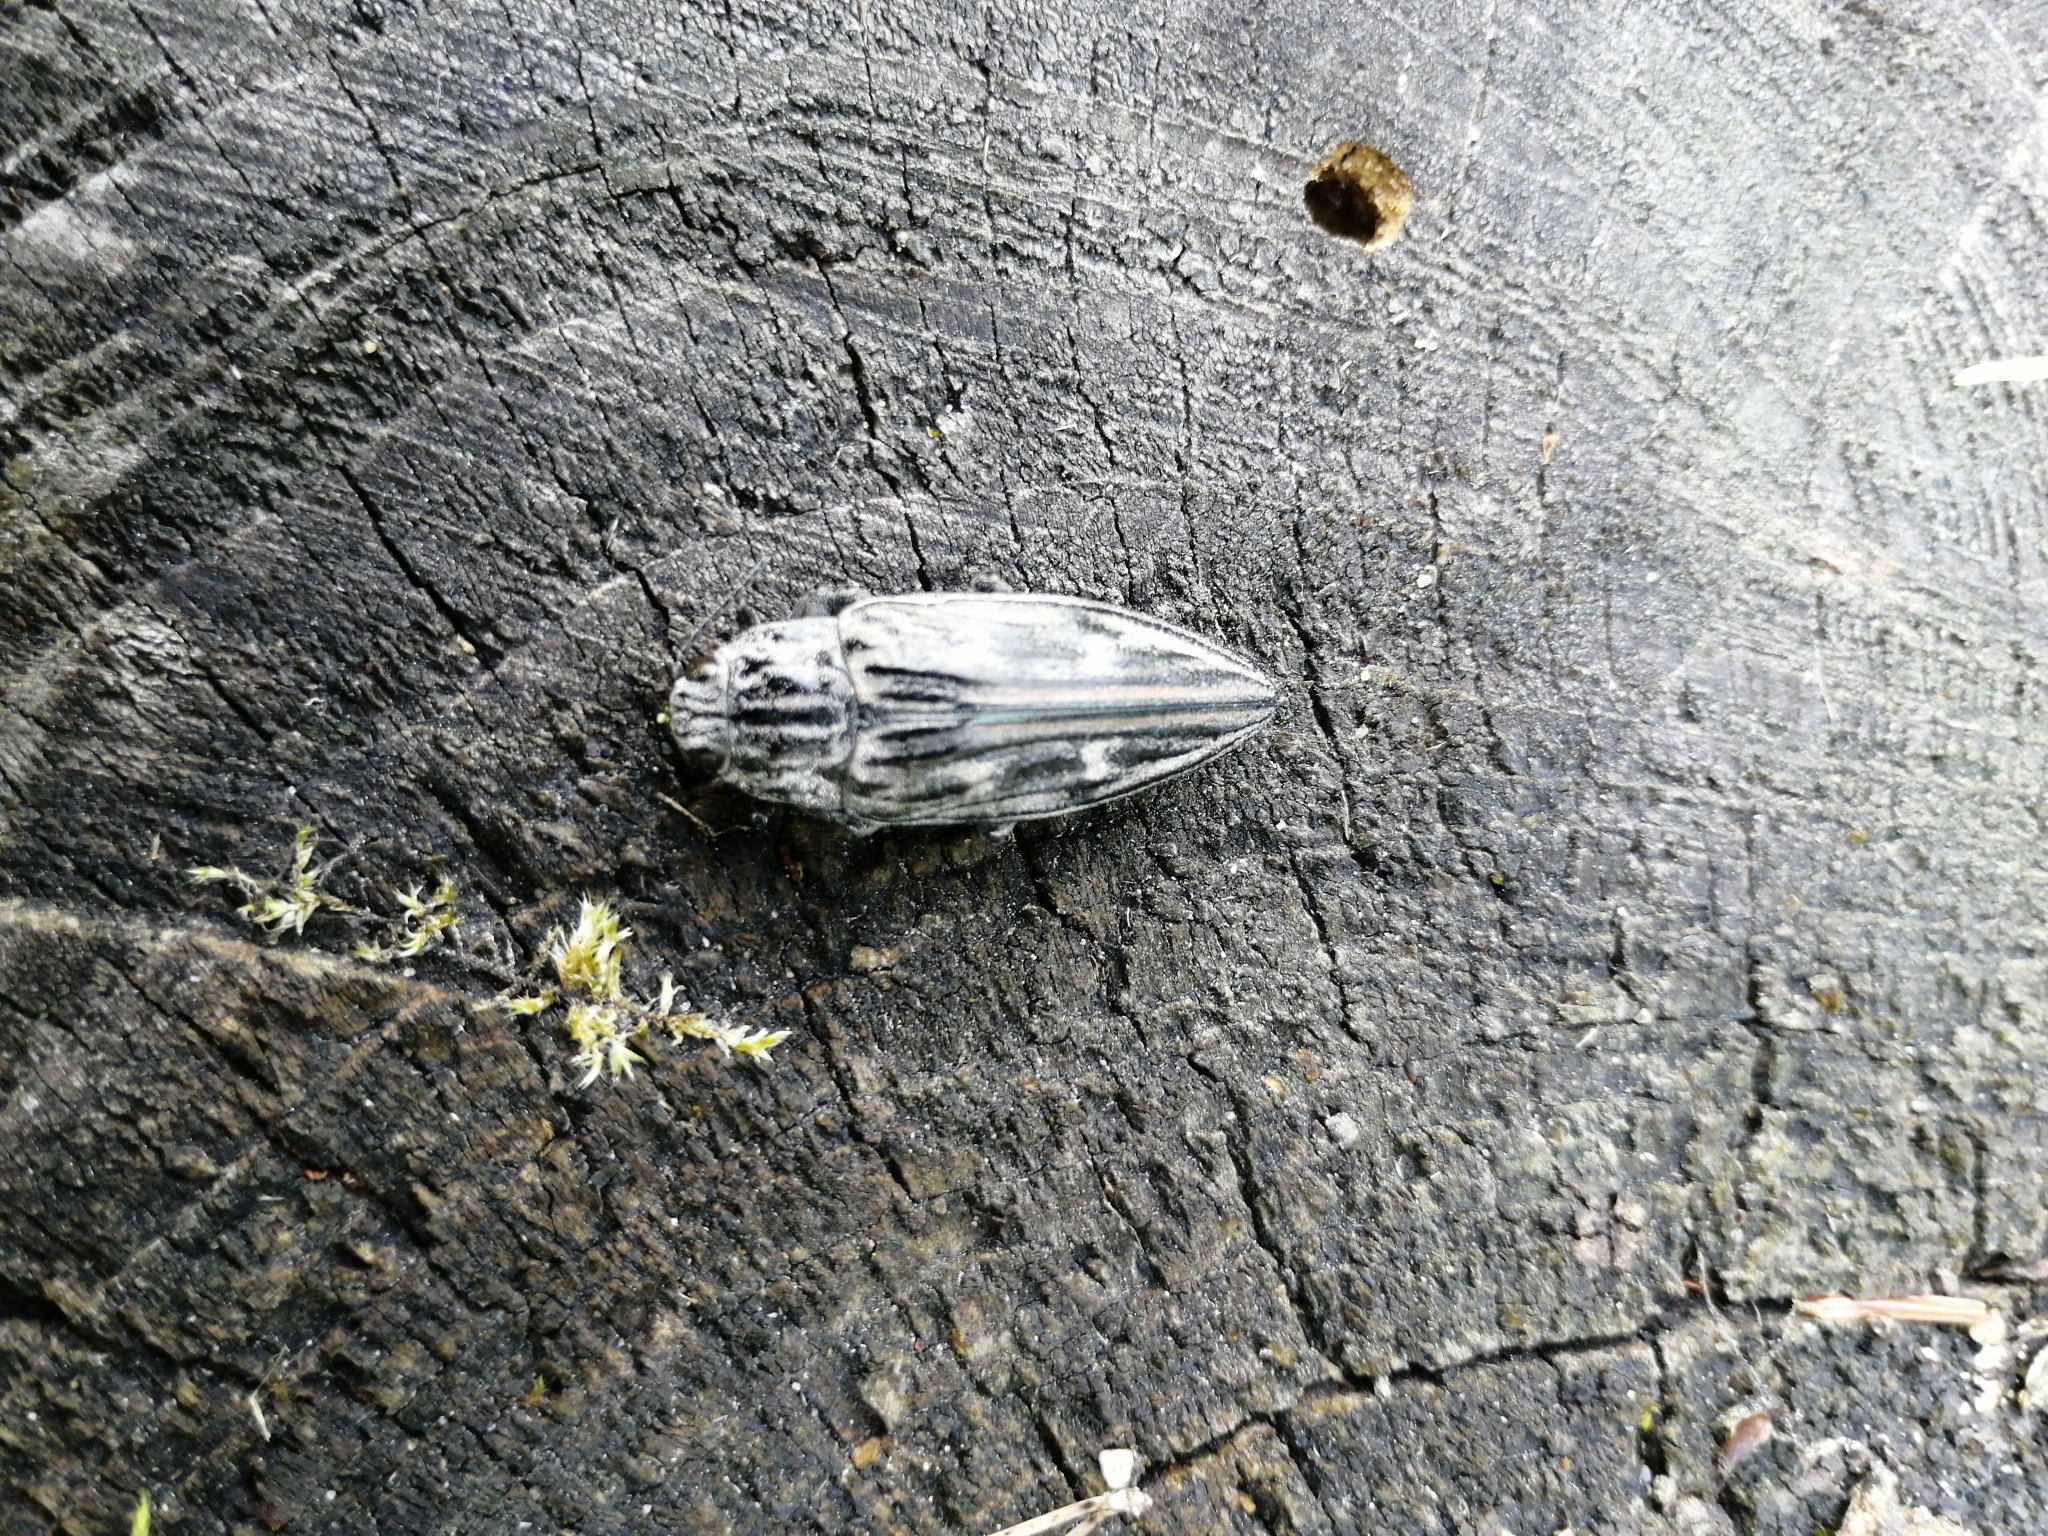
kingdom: Animalia
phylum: Arthropoda
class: Insecta
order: Coleoptera
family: Buprestidae
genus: Chalcophora
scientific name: Chalcophora mariana
